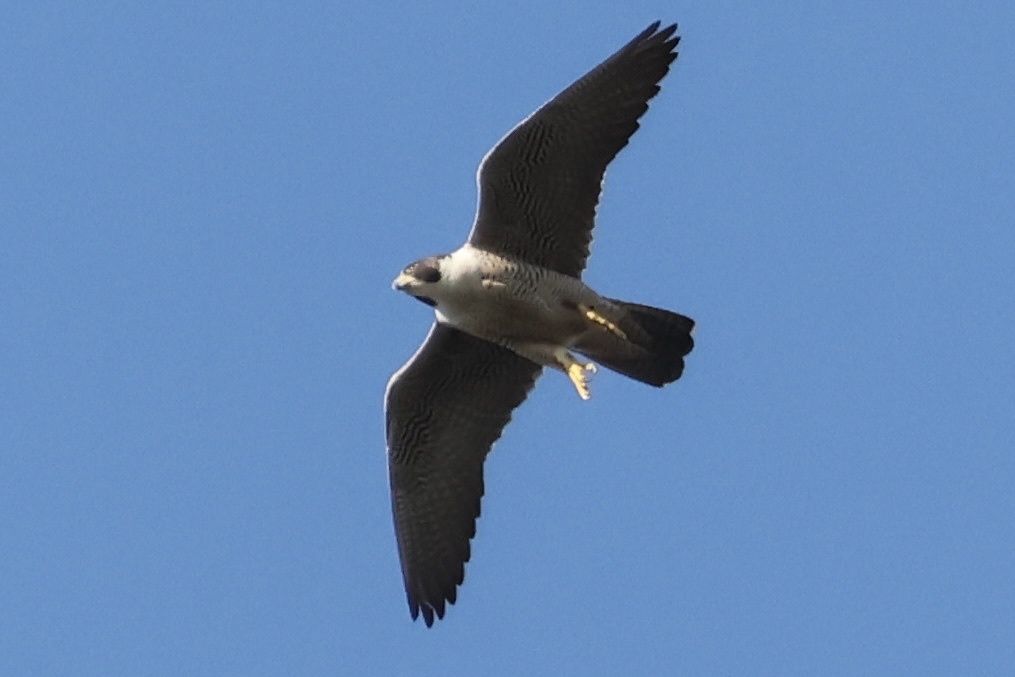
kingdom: Animalia
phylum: Chordata
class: Aves
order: Falconiformes
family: Falconidae
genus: Falco
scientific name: Falco peregrinus
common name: Peregrine falcon
